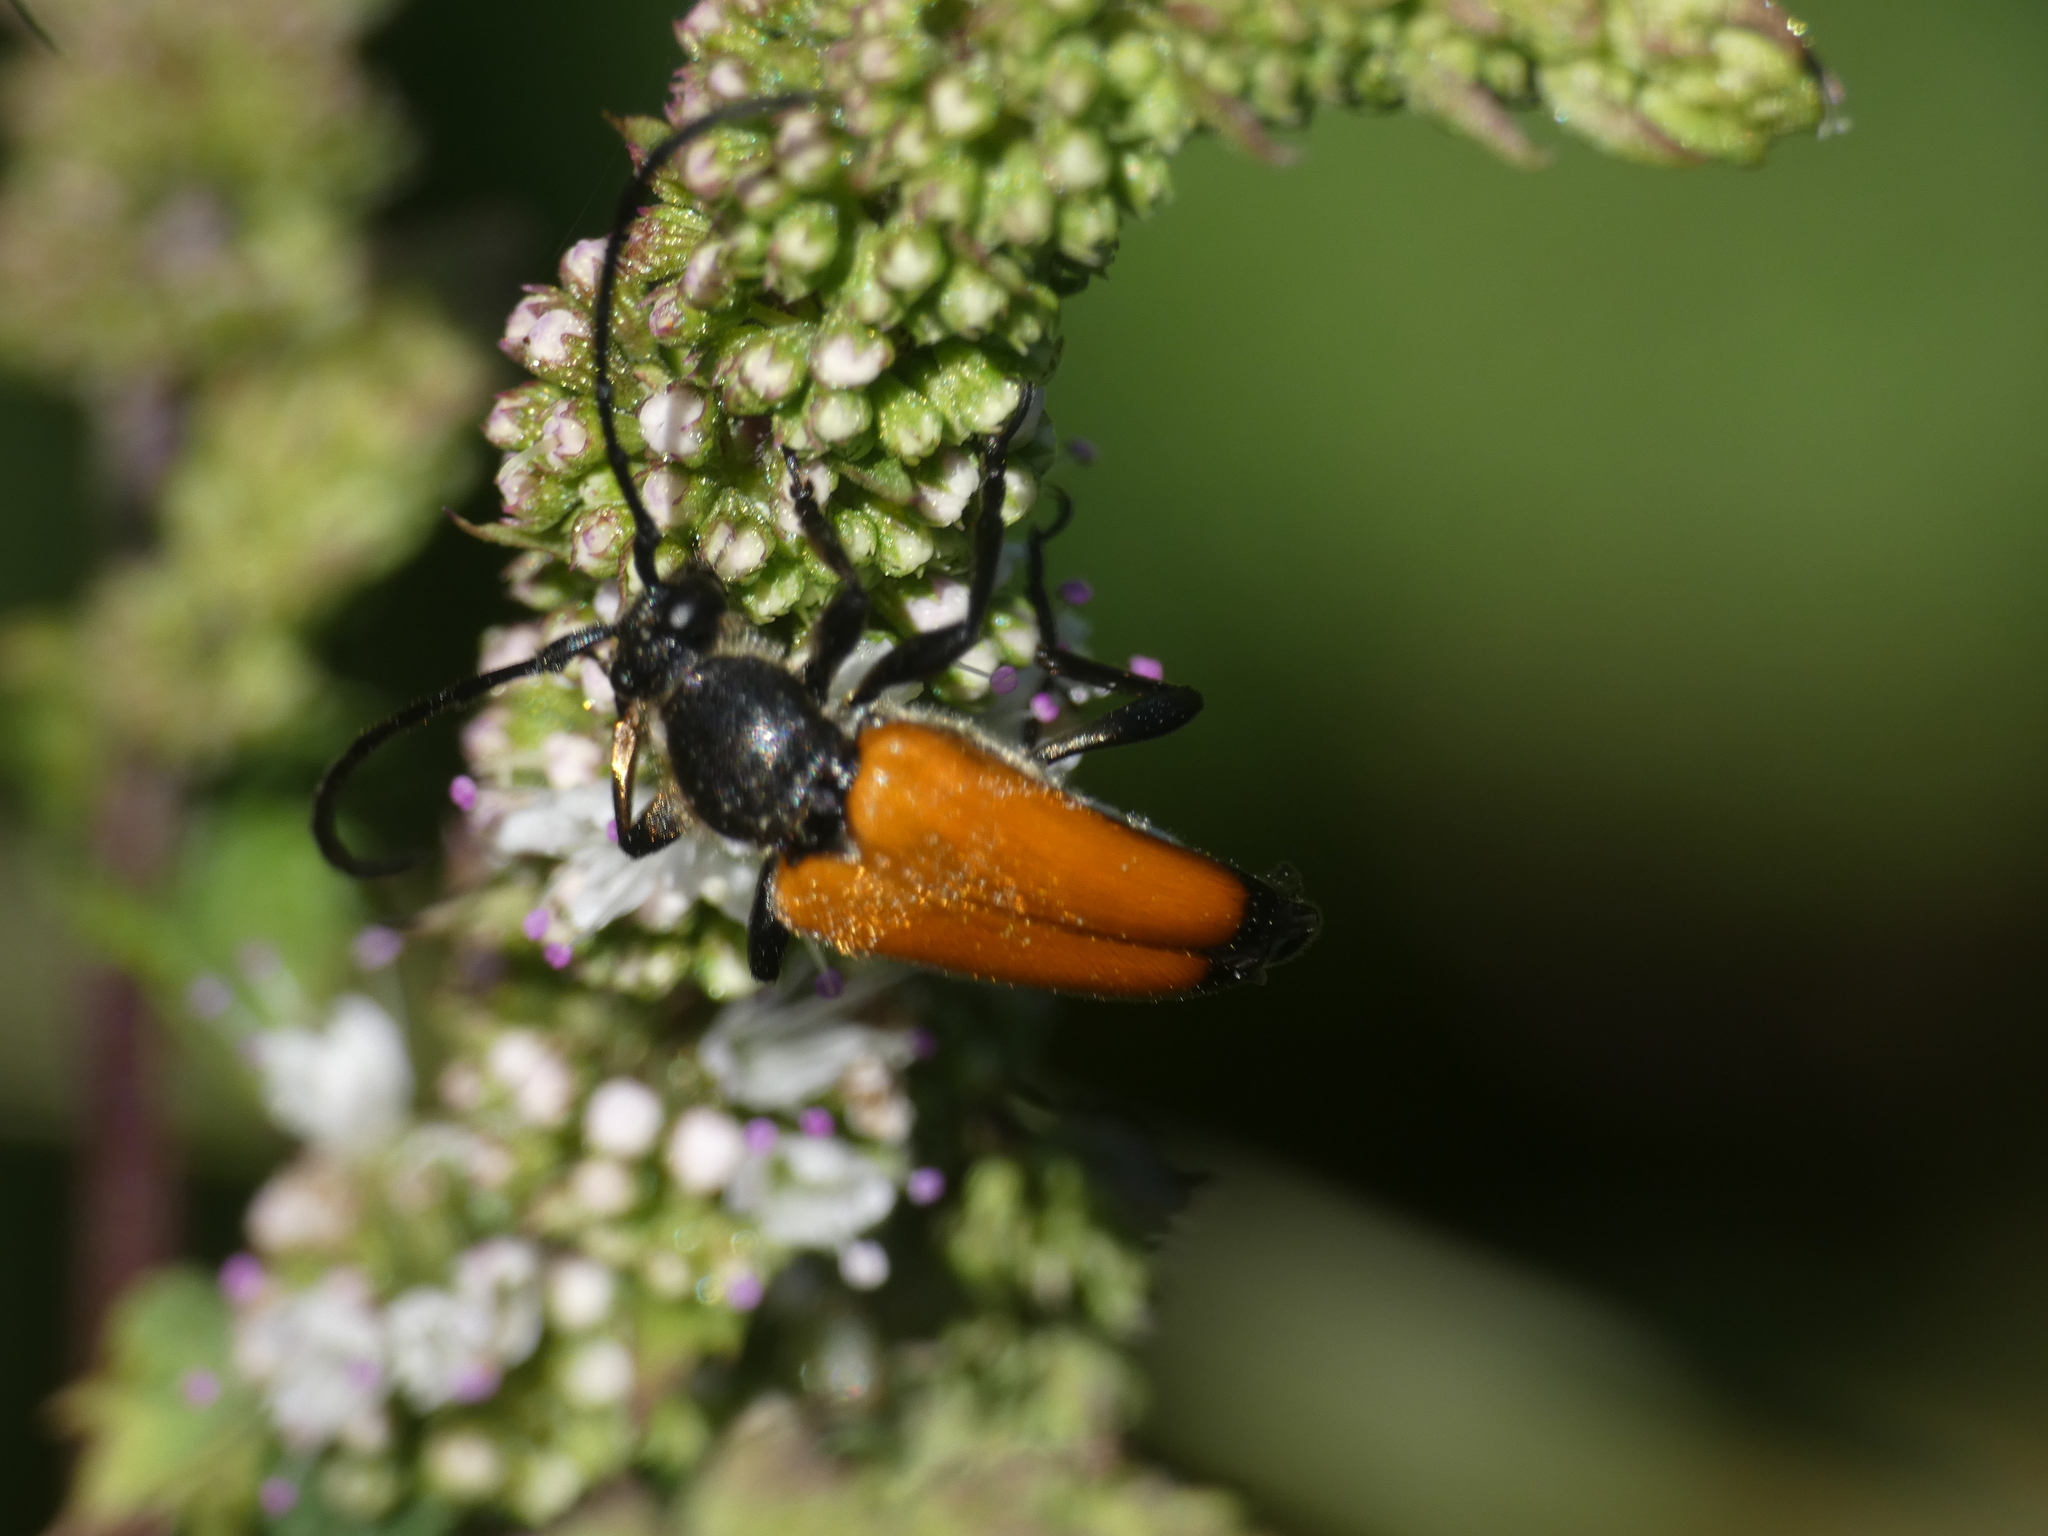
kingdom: Animalia
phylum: Arthropoda
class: Insecta
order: Coleoptera
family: Cerambycidae
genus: Paracorymbia
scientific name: Paracorymbia fulva
